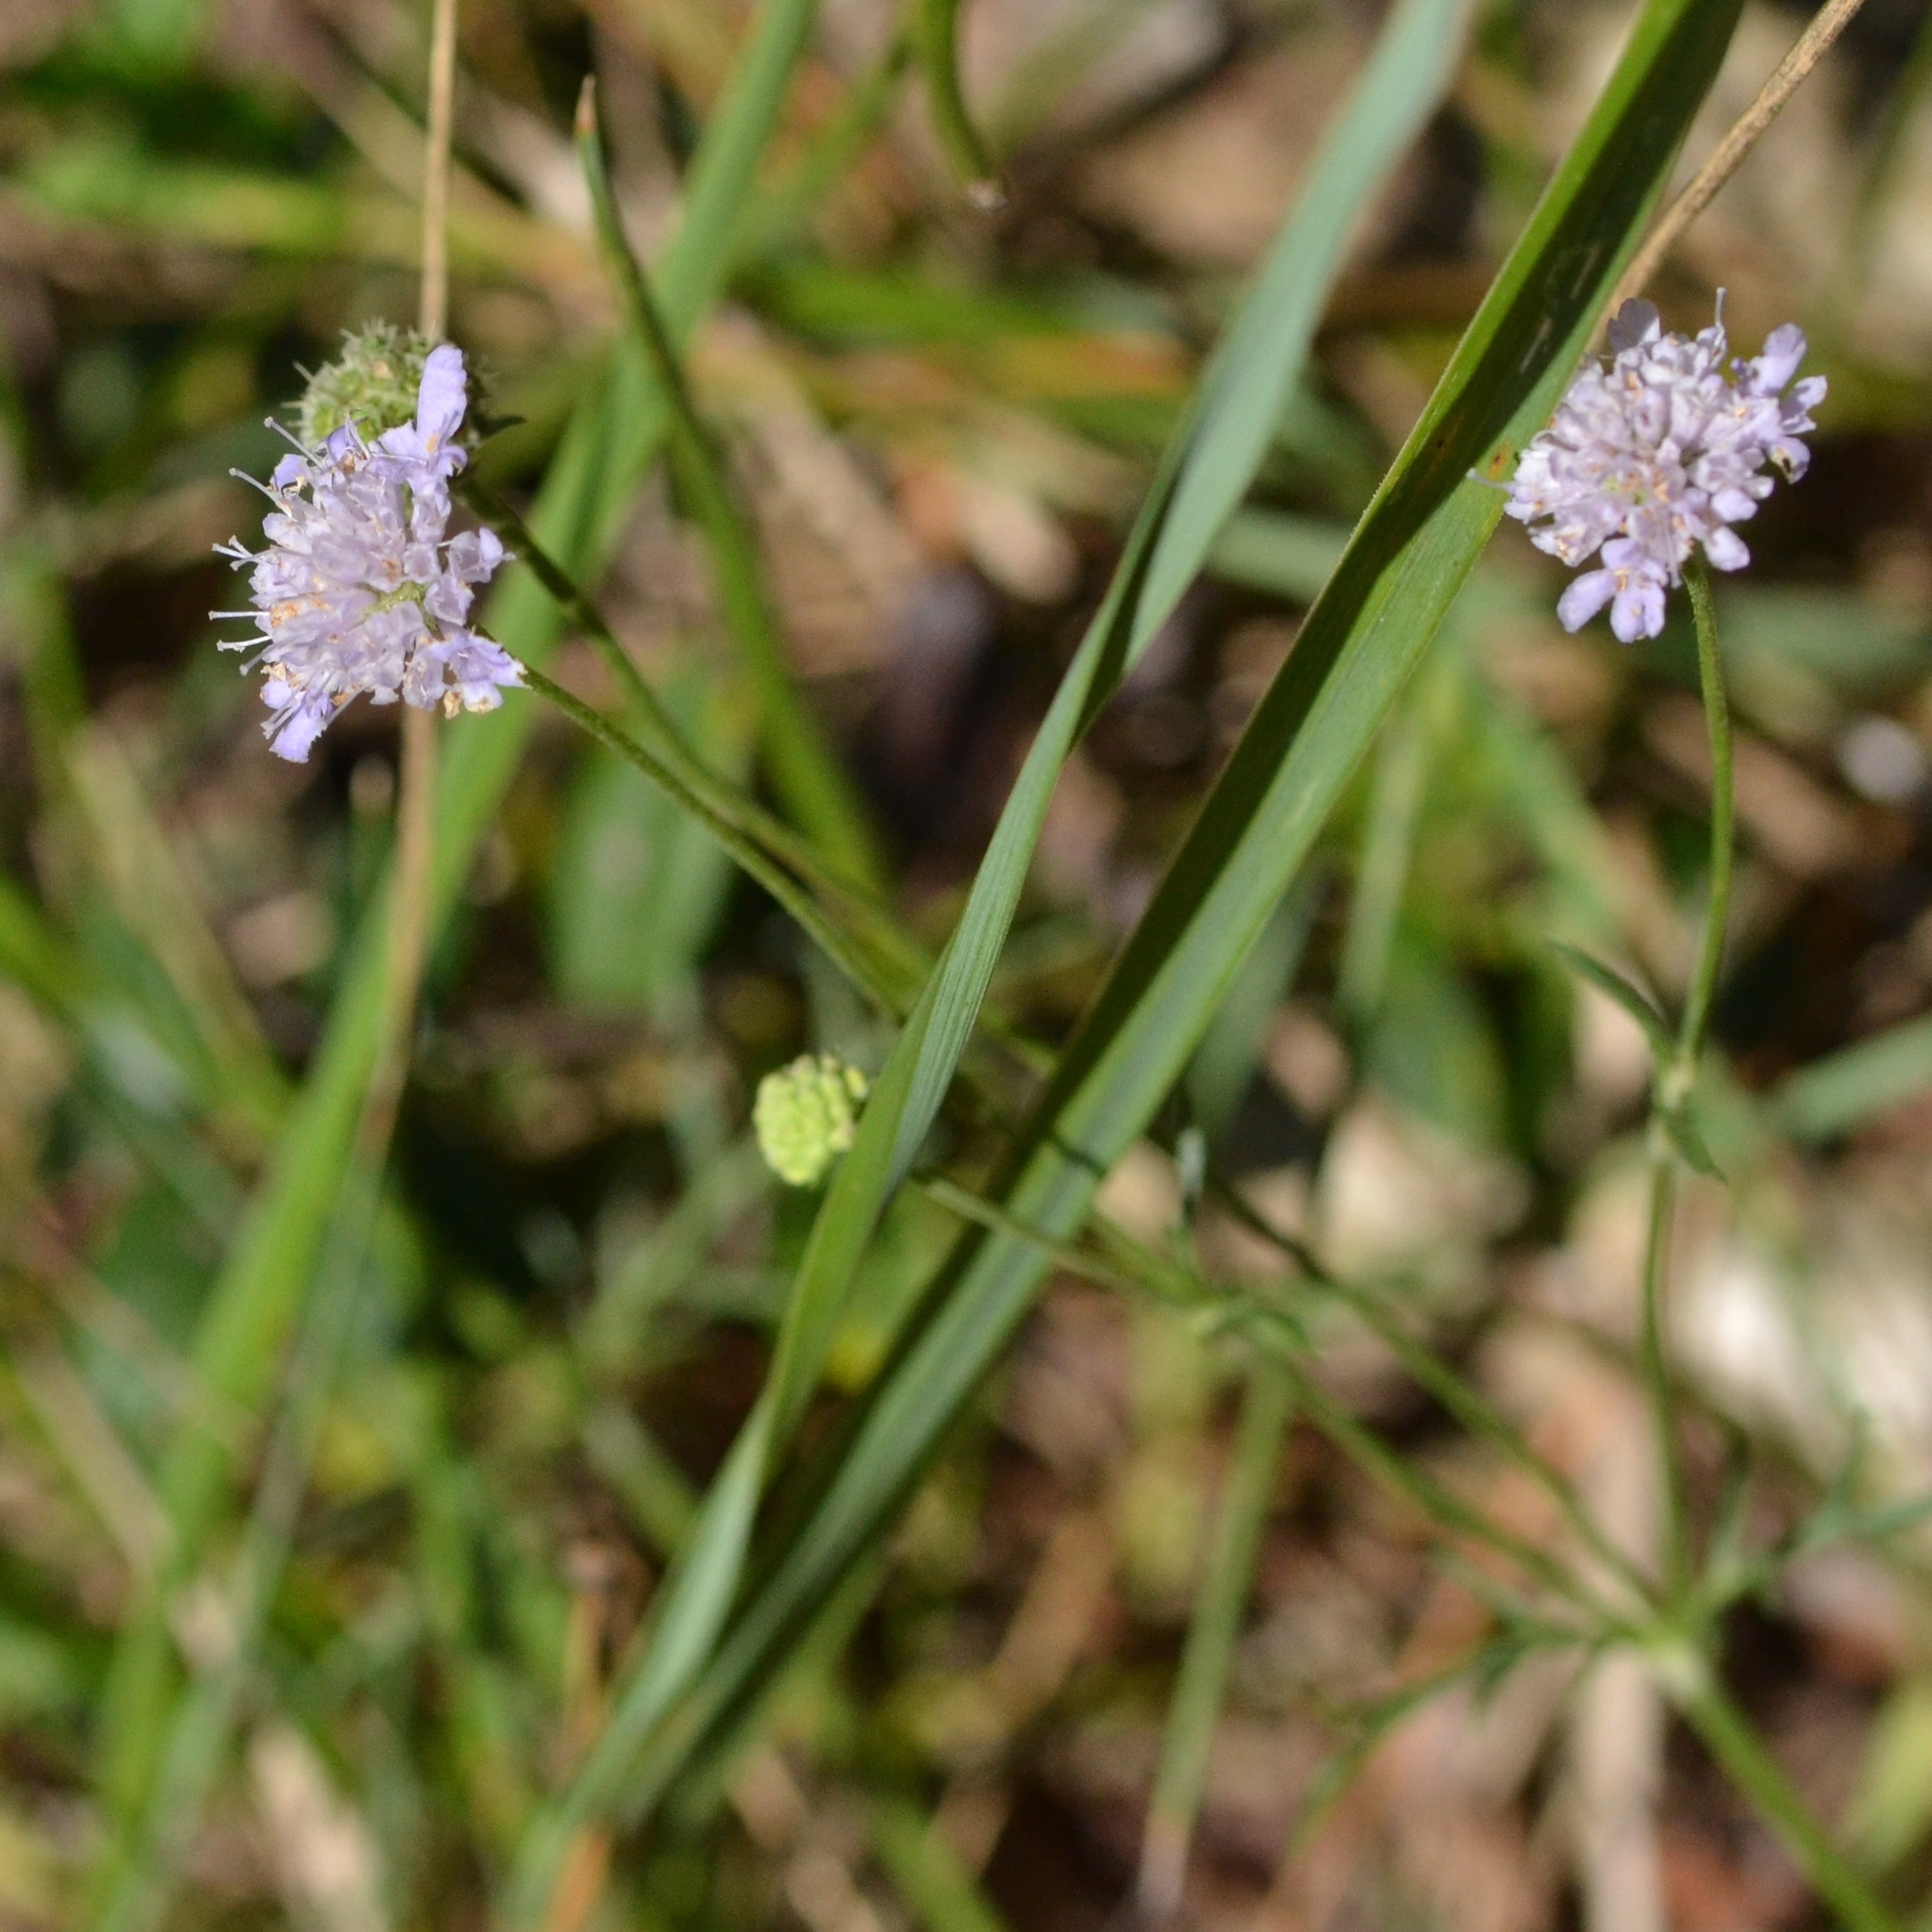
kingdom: Plantae
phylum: Tracheophyta
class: Magnoliopsida
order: Dipsacales
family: Caprifoliaceae
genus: Scabiosa
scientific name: Scabiosa canescens
